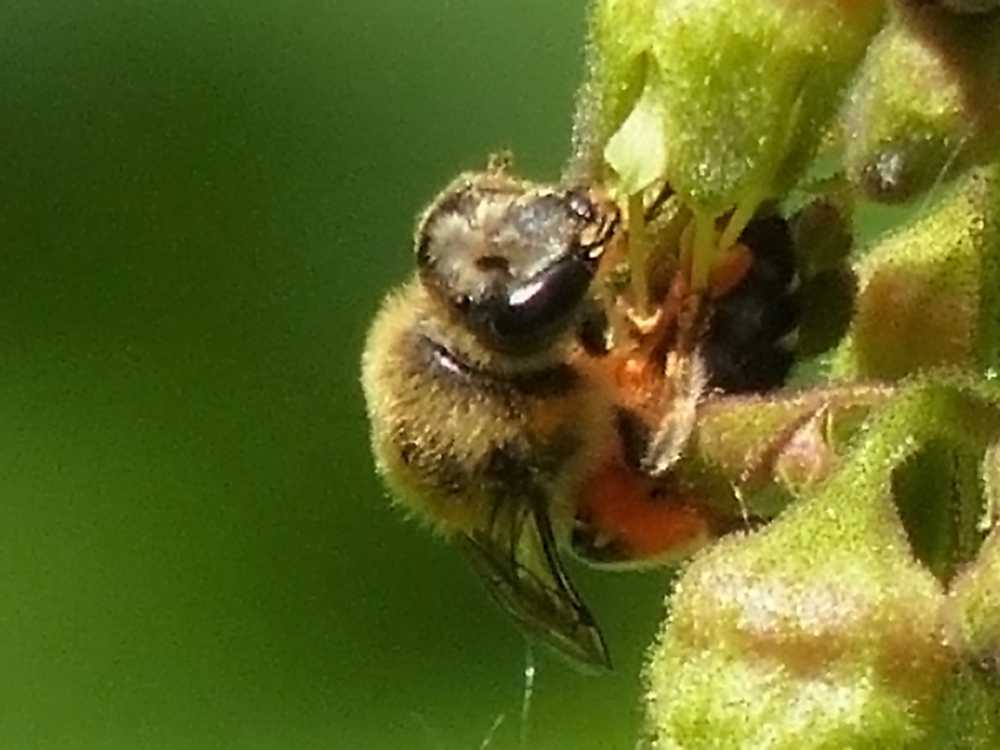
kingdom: Animalia
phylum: Arthropoda
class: Insecta
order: Hymenoptera
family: Colletidae
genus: Colletes
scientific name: Colletes aestivalis
